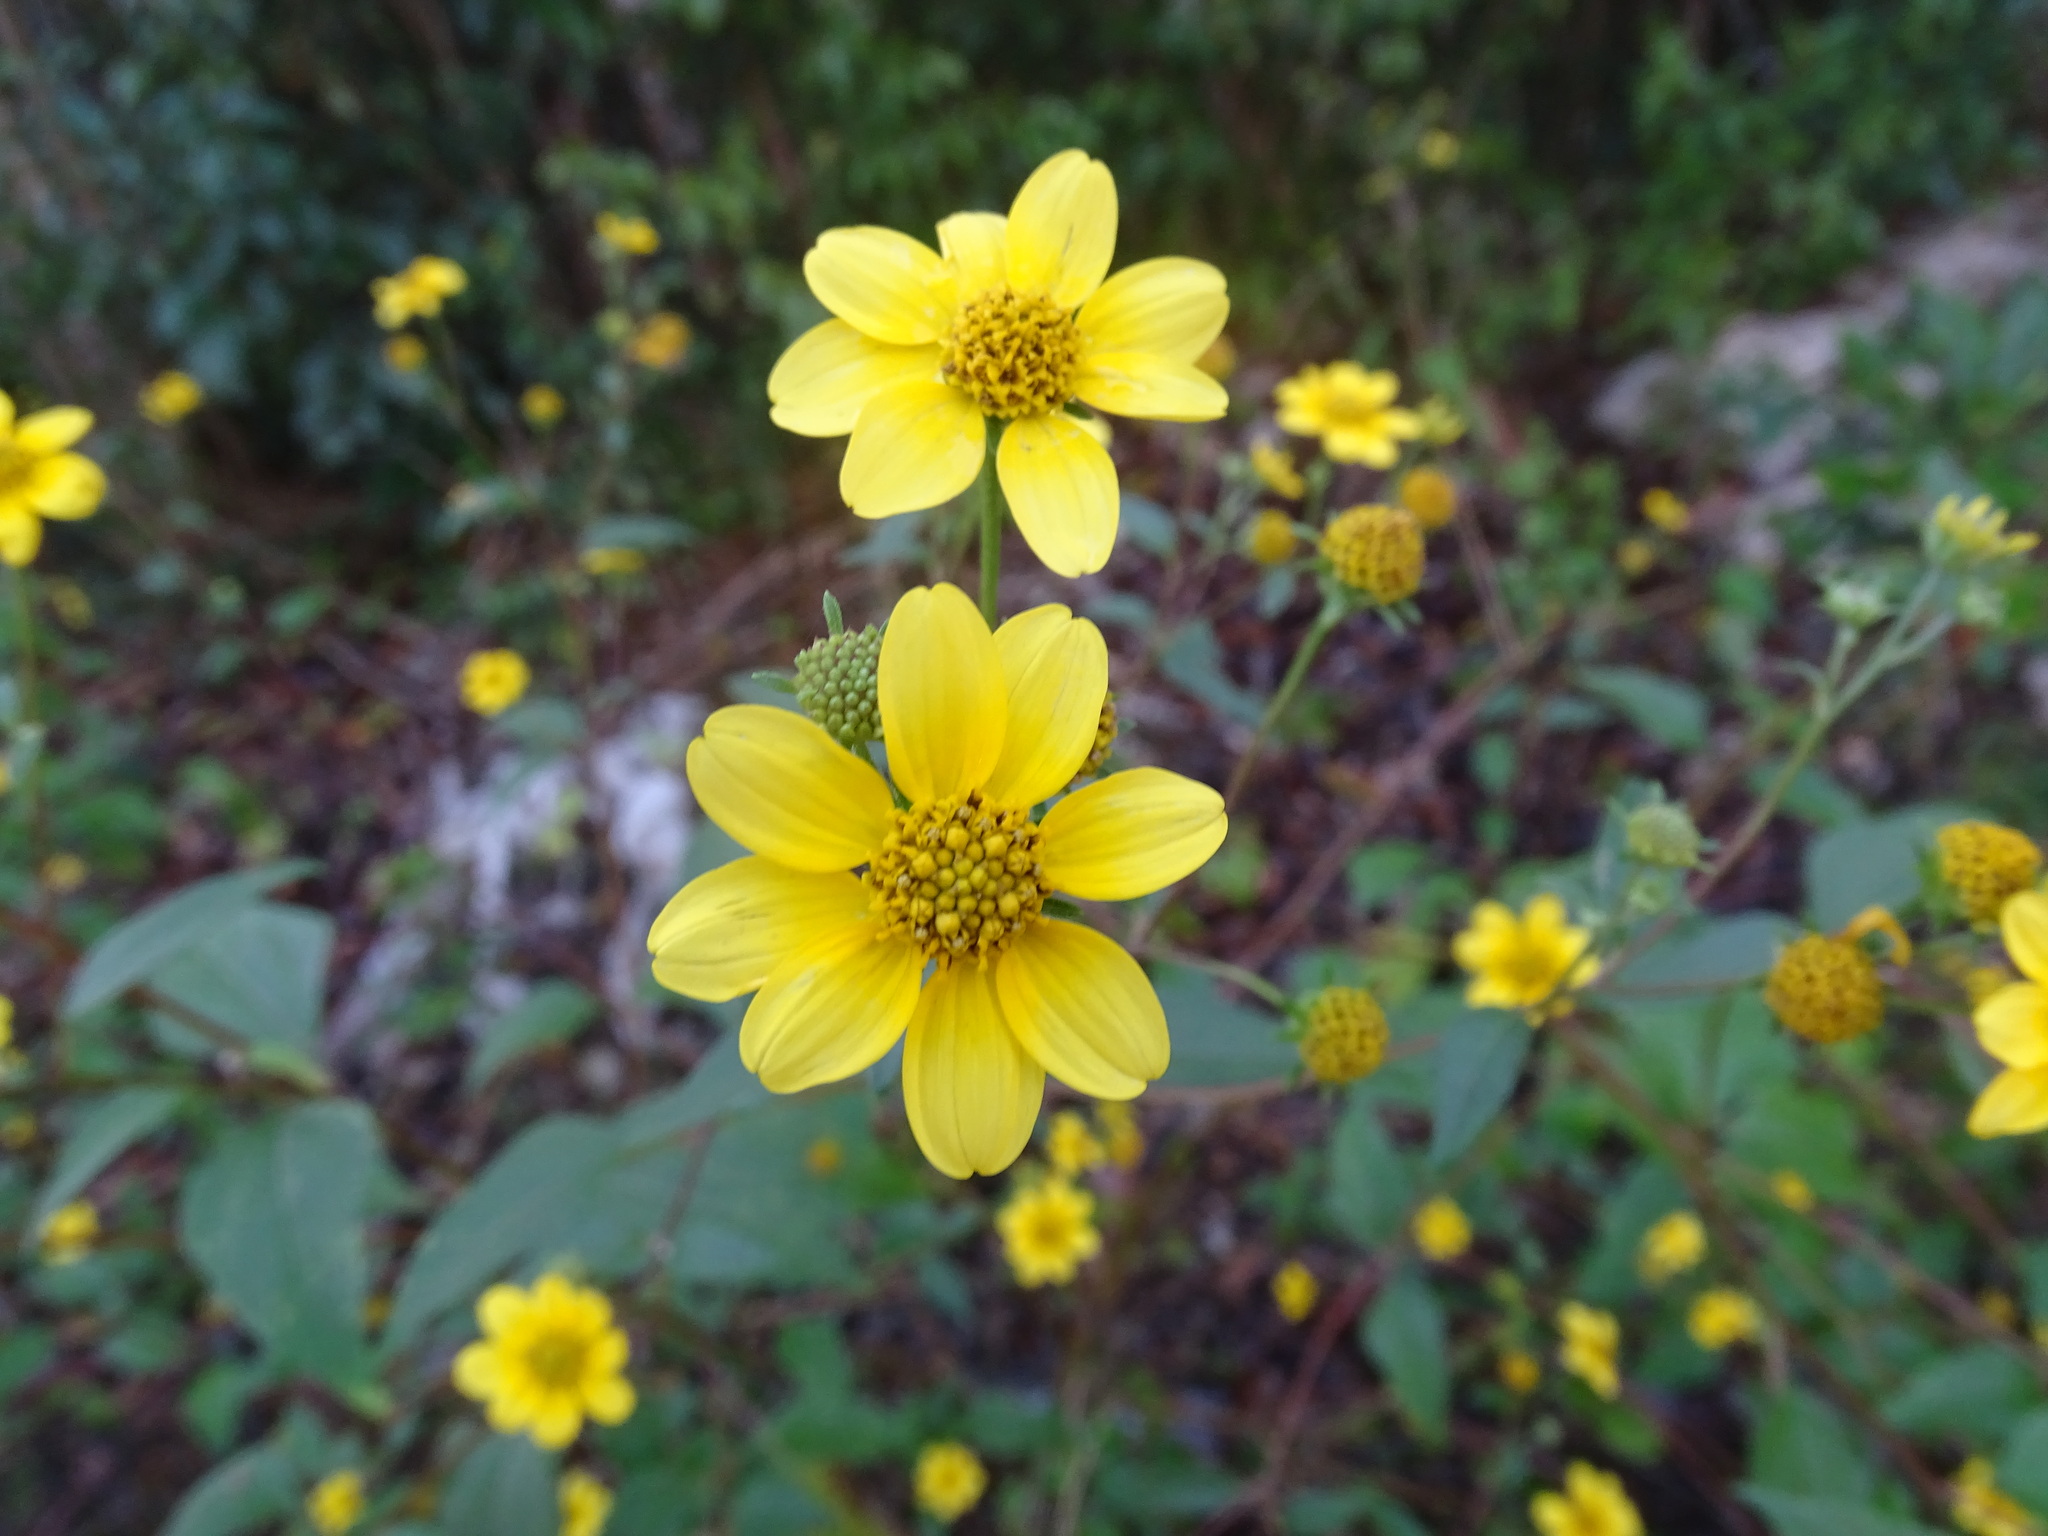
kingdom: Plantae
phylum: Tracheophyta
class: Magnoliopsida
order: Asterales
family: Asteraceae
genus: Viguiera
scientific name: Viguiera dentata
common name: Toothleaf
